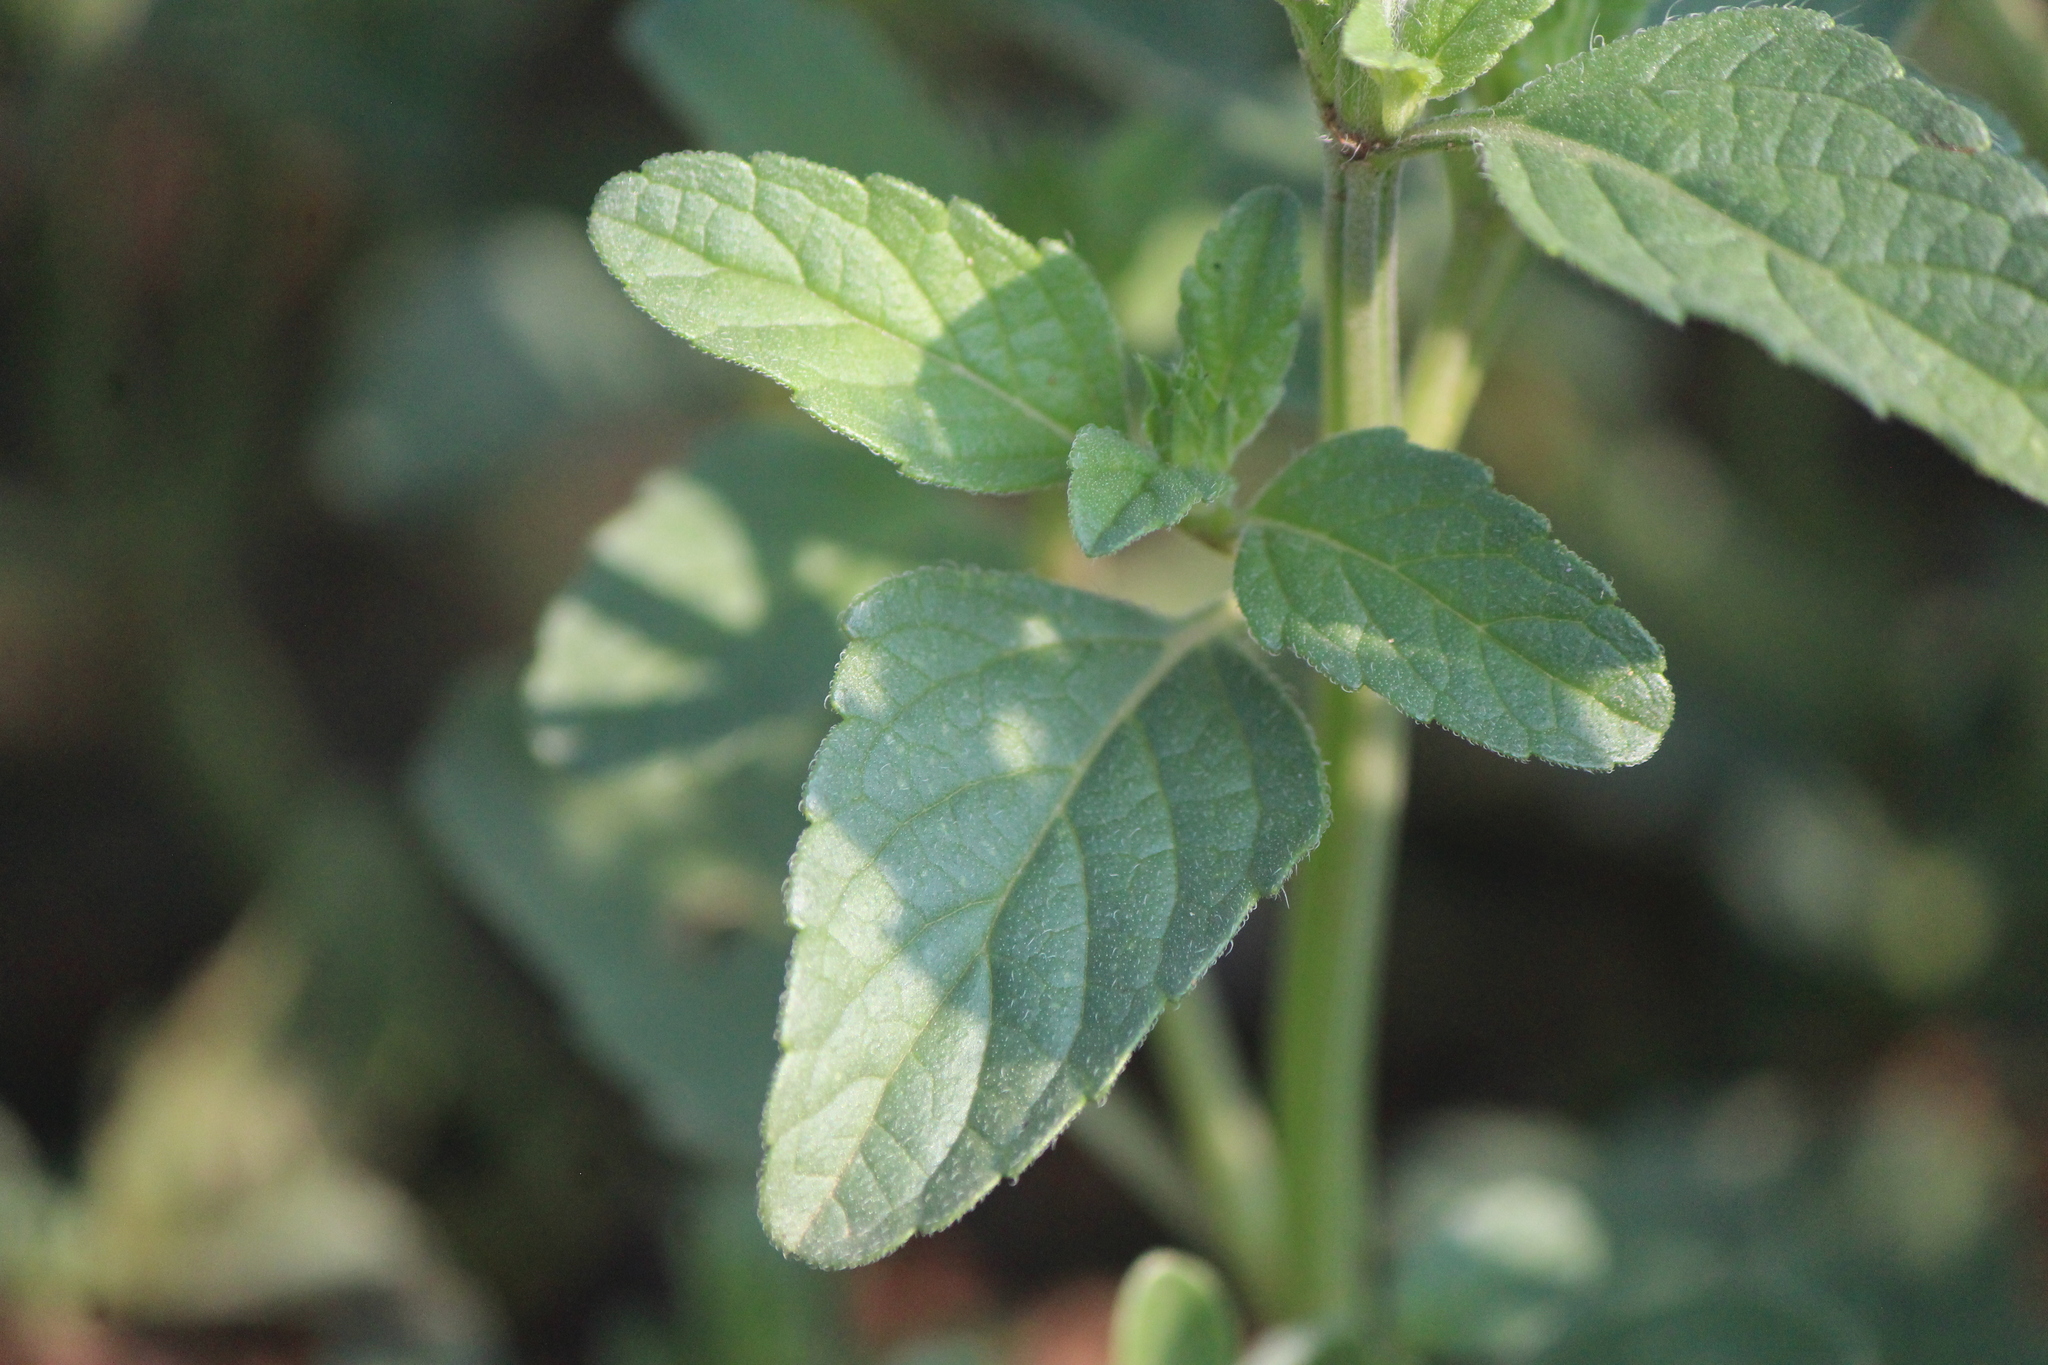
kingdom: Plantae
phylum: Tracheophyta
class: Magnoliopsida
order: Lamiales
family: Lamiaceae
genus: Salvia
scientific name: Salvia hirsuta
